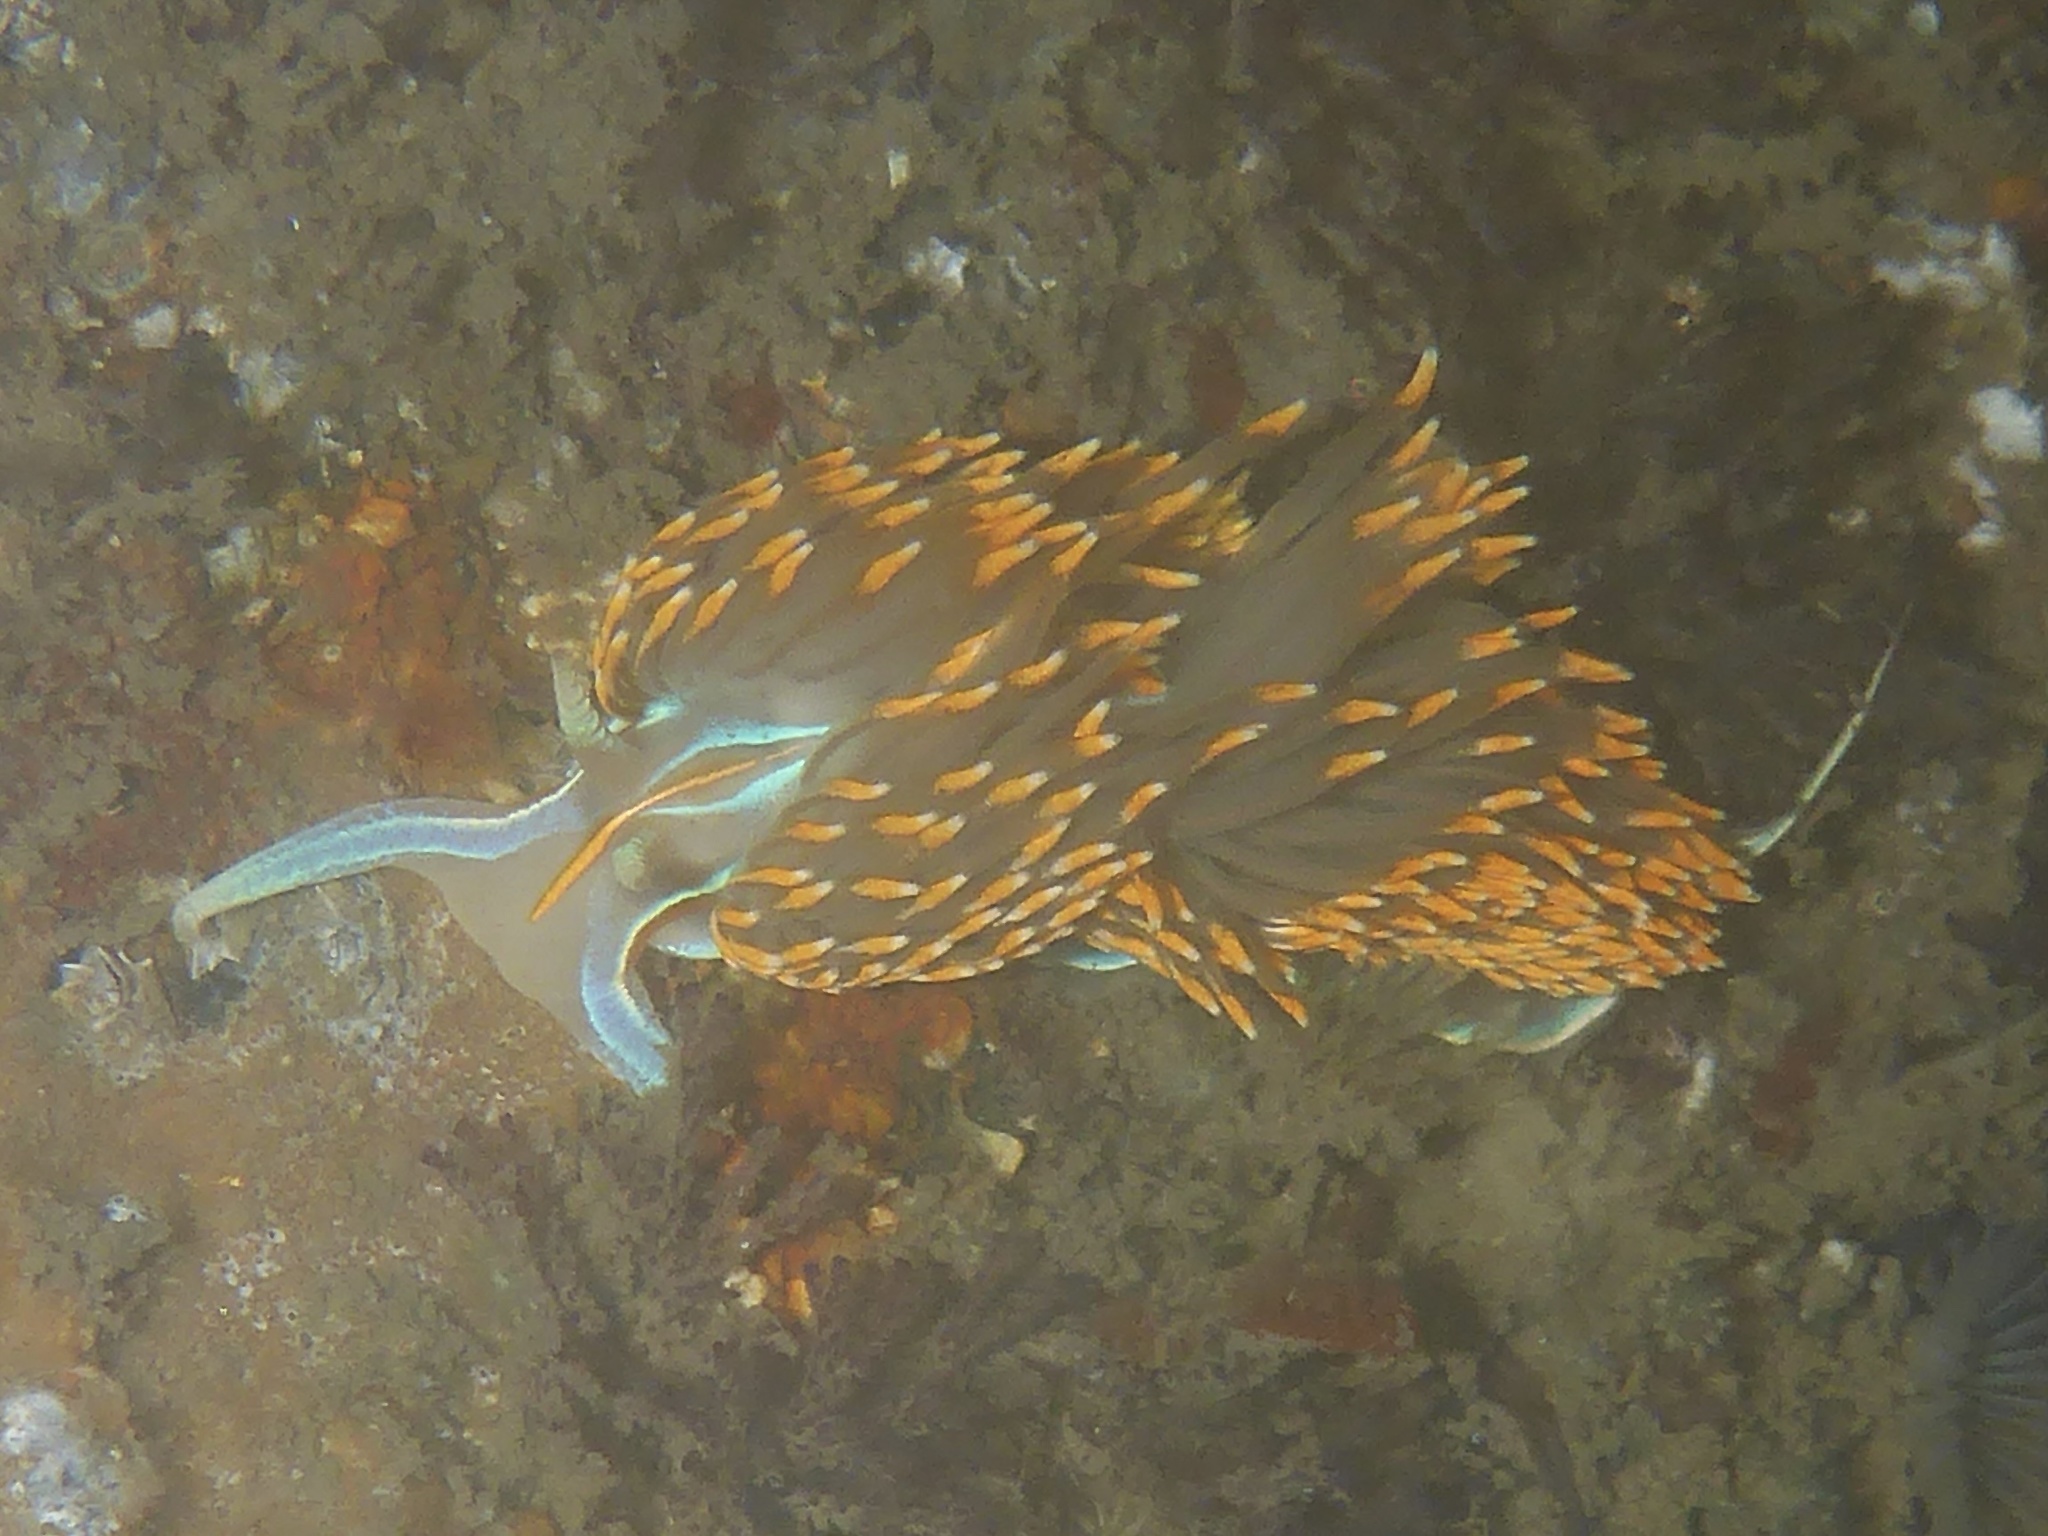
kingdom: Animalia
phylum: Mollusca
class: Gastropoda
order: Nudibranchia
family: Myrrhinidae
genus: Hermissenda
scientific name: Hermissenda opalescens
